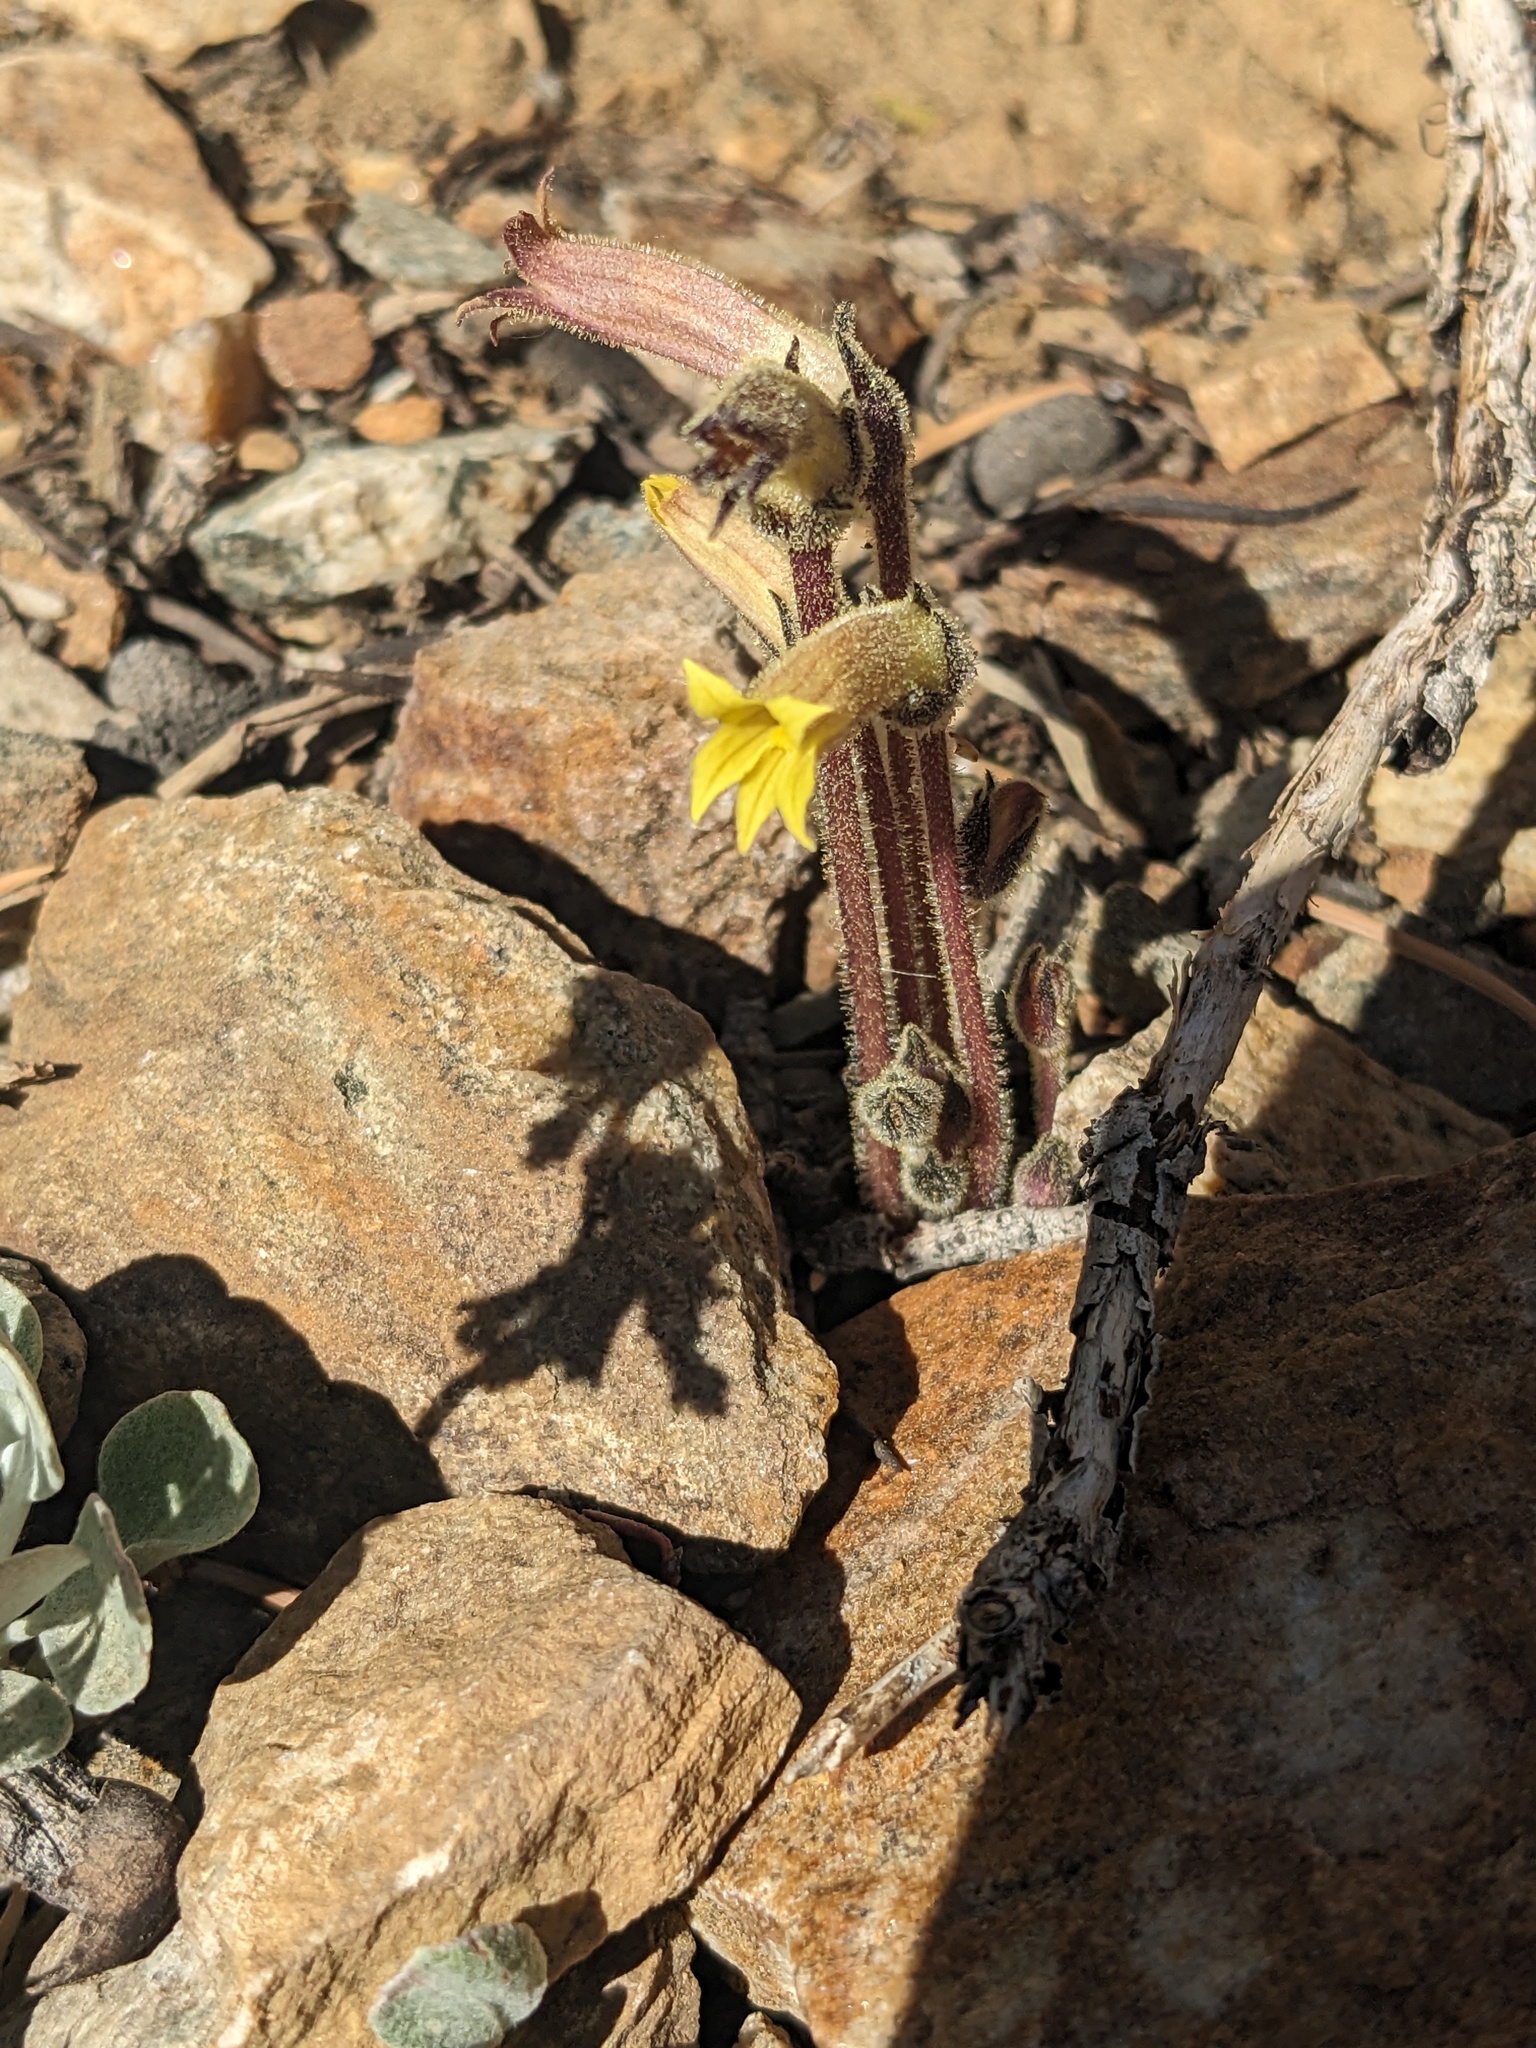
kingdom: Plantae
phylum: Tracheophyta
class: Magnoliopsida
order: Lamiales
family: Orobanchaceae
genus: Aphyllon
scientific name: Aphyllon franciscanum
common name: San francisco broomrape
